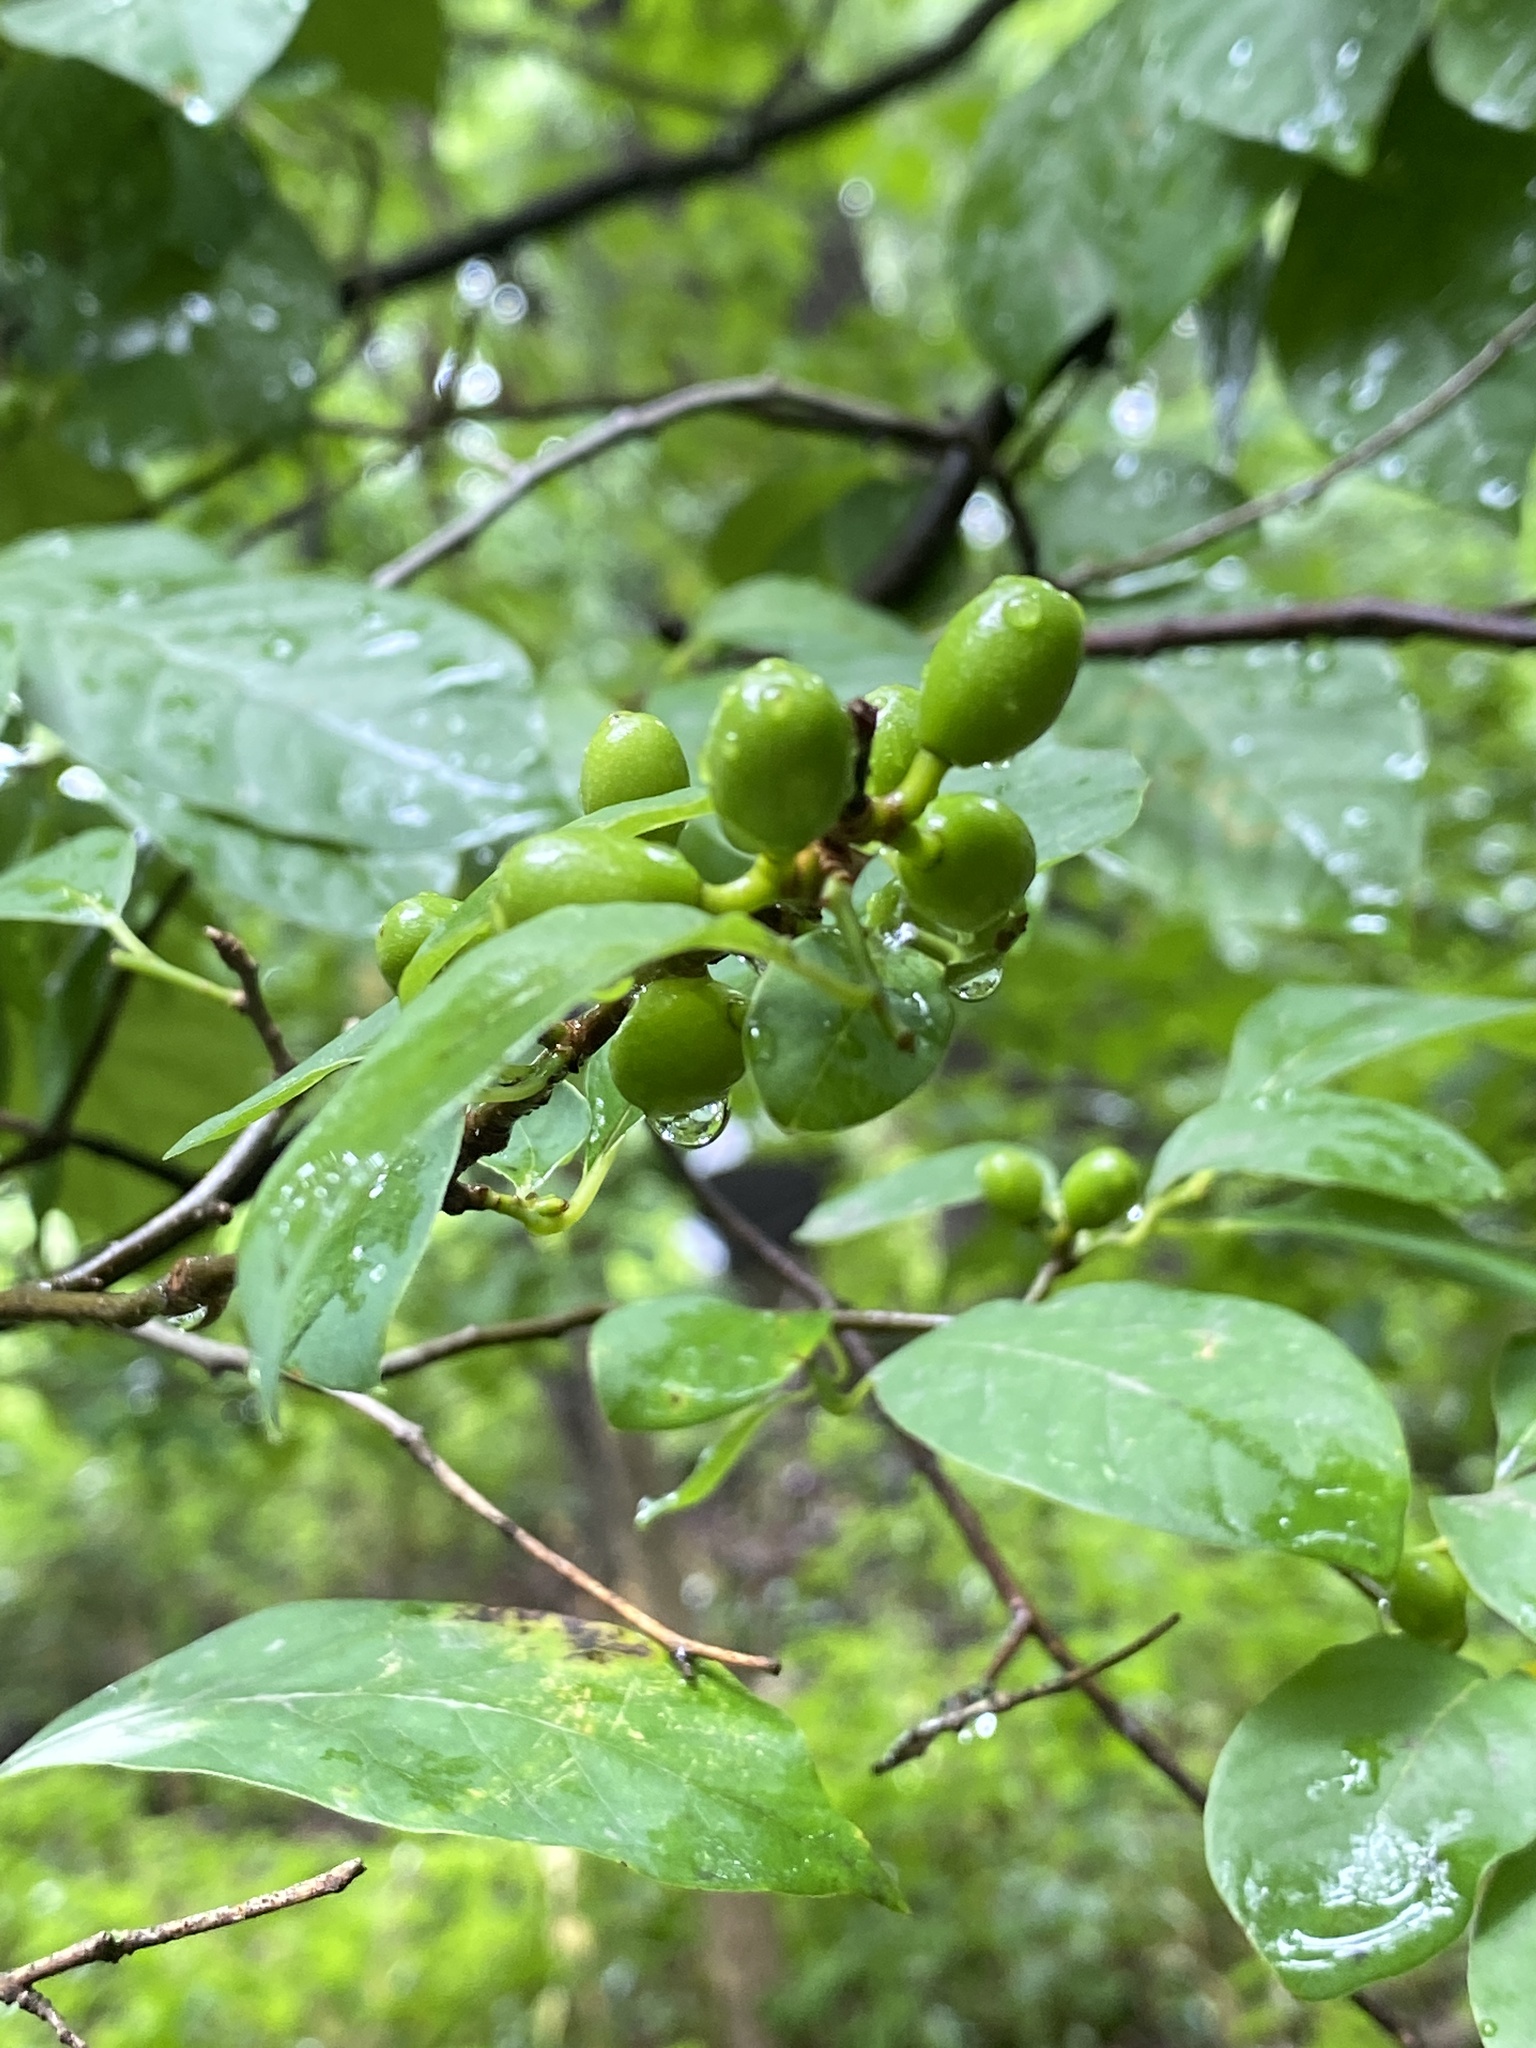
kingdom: Plantae
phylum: Tracheophyta
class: Magnoliopsida
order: Laurales
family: Lauraceae
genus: Lindera
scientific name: Lindera benzoin
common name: Spicebush
